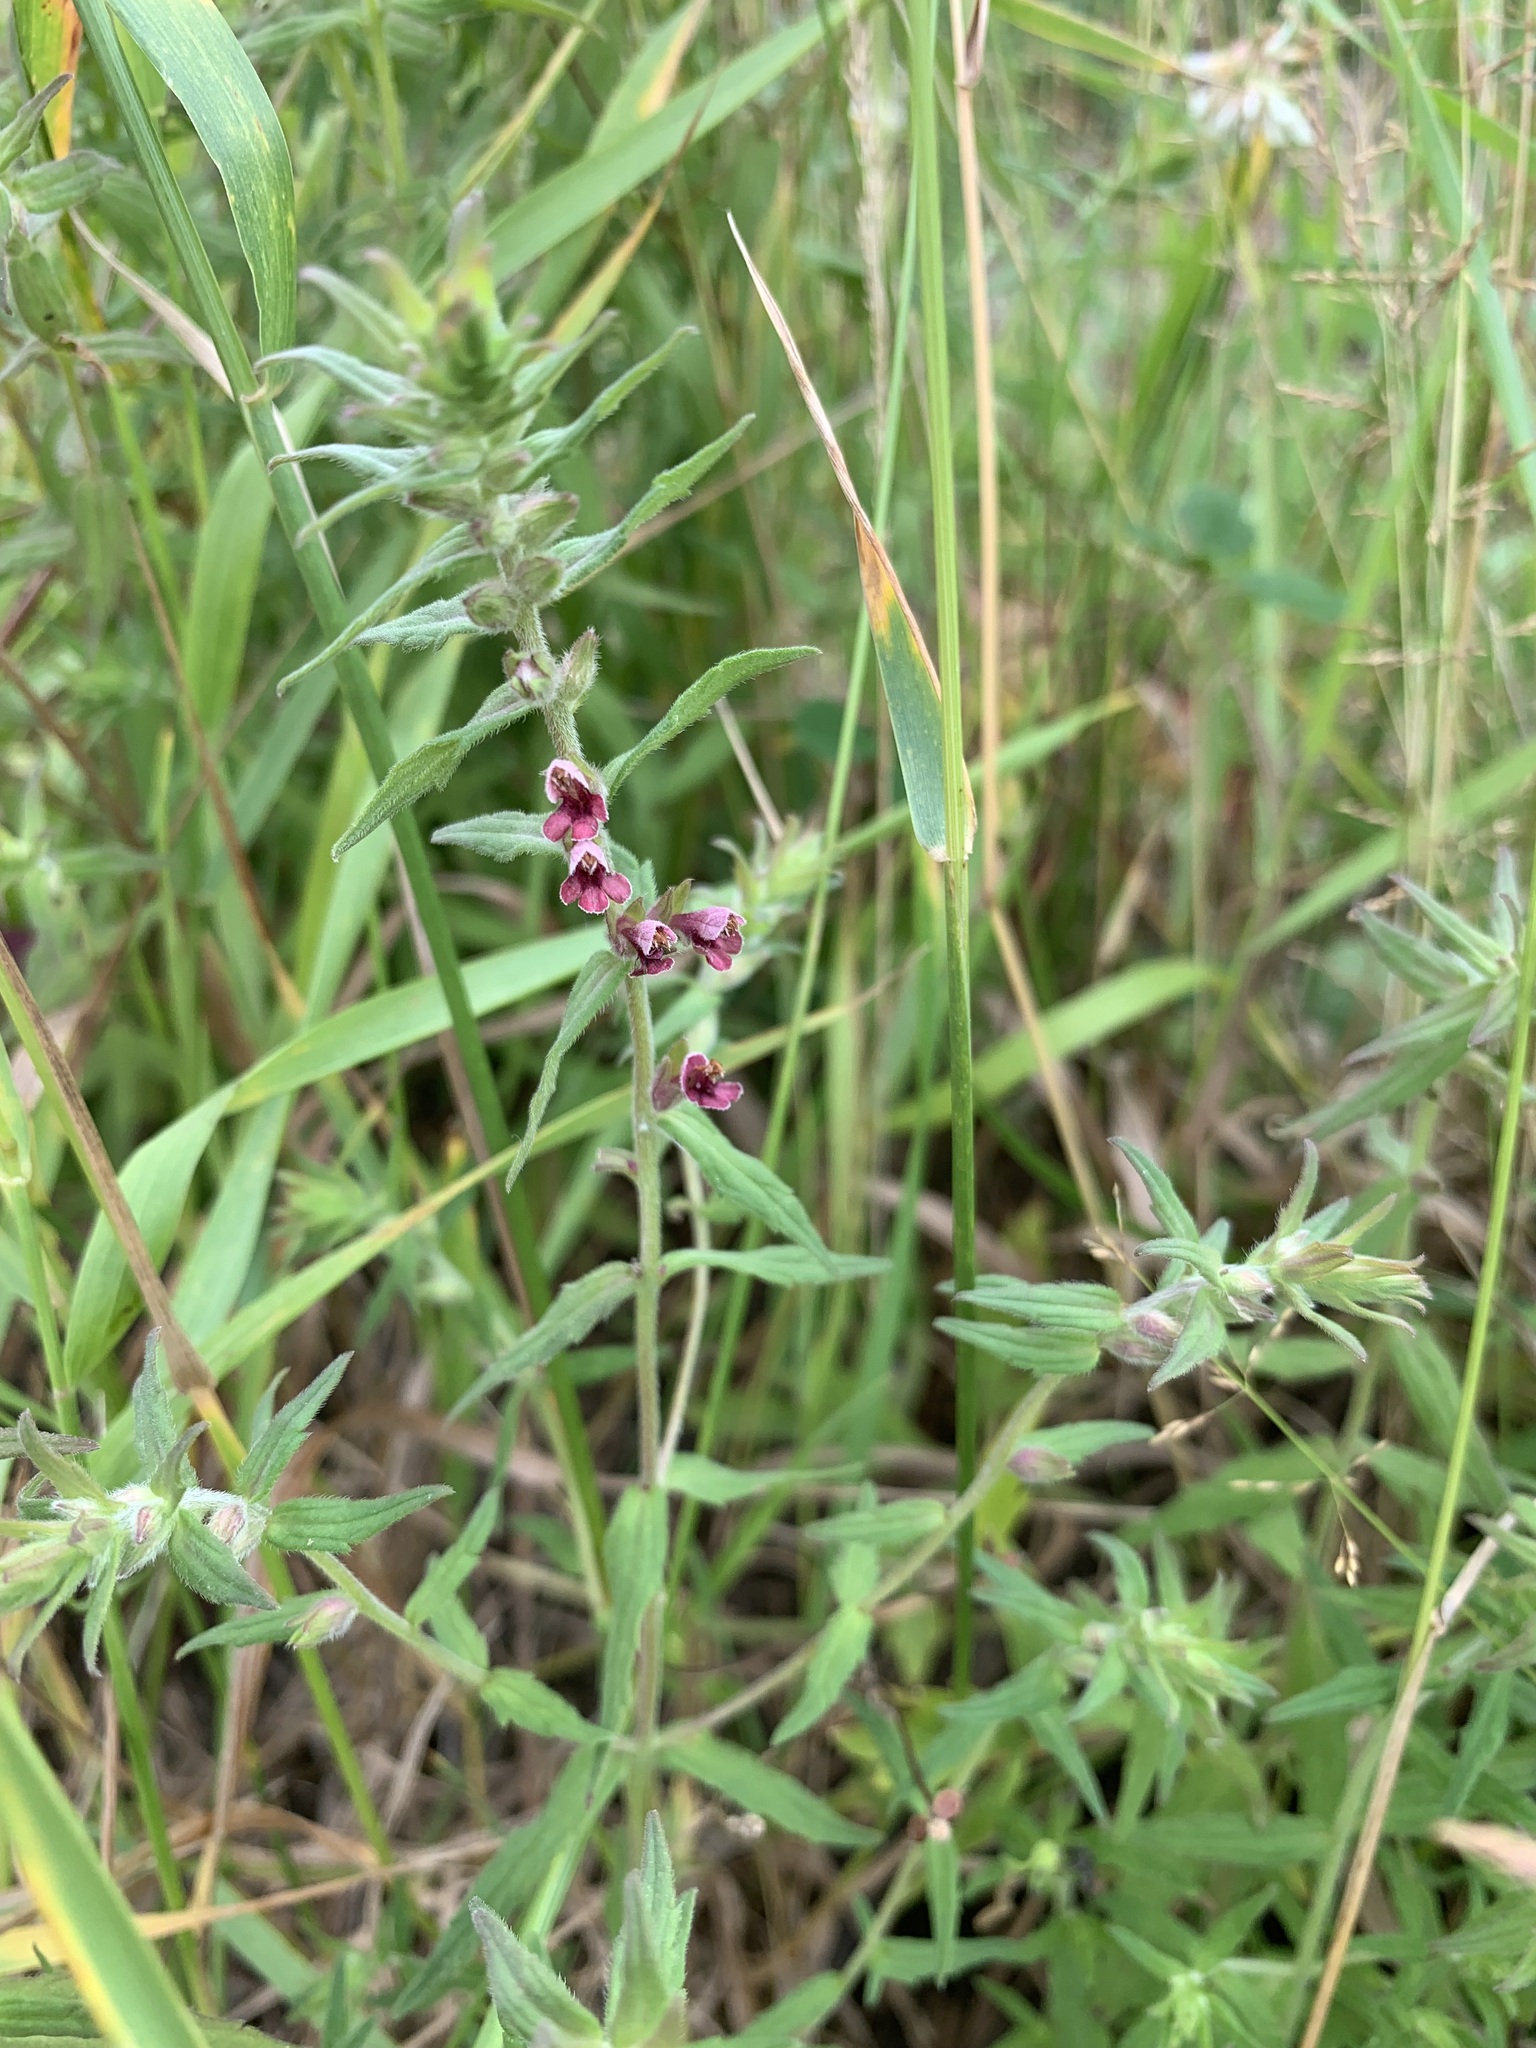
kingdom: Plantae
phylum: Tracheophyta
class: Magnoliopsida
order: Lamiales
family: Orobanchaceae
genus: Odontites
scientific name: Odontites vulgaris
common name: Broomrape
